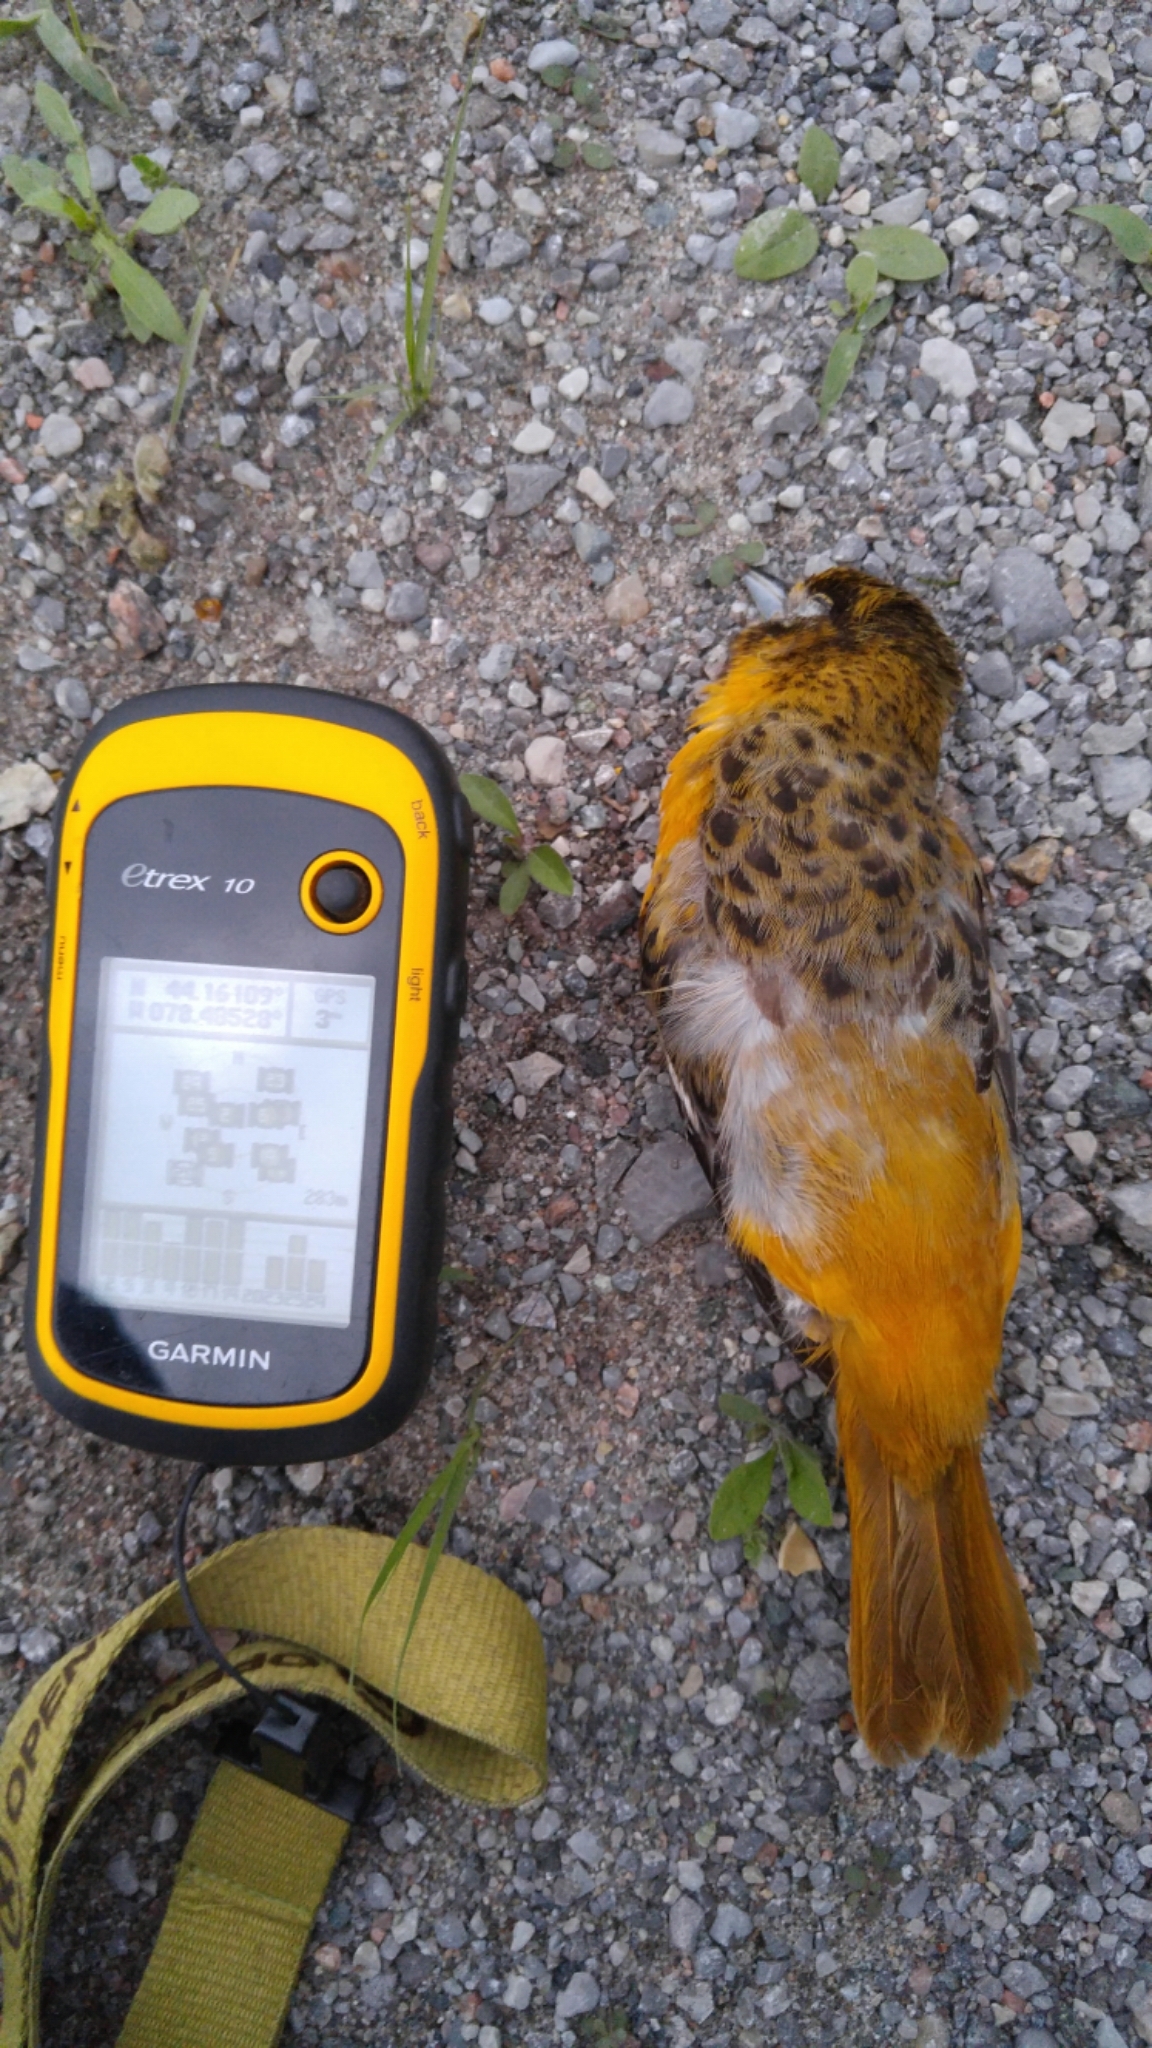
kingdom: Animalia
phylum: Chordata
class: Aves
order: Passeriformes
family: Icteridae
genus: Icterus
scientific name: Icterus galbula
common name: Baltimore oriole
